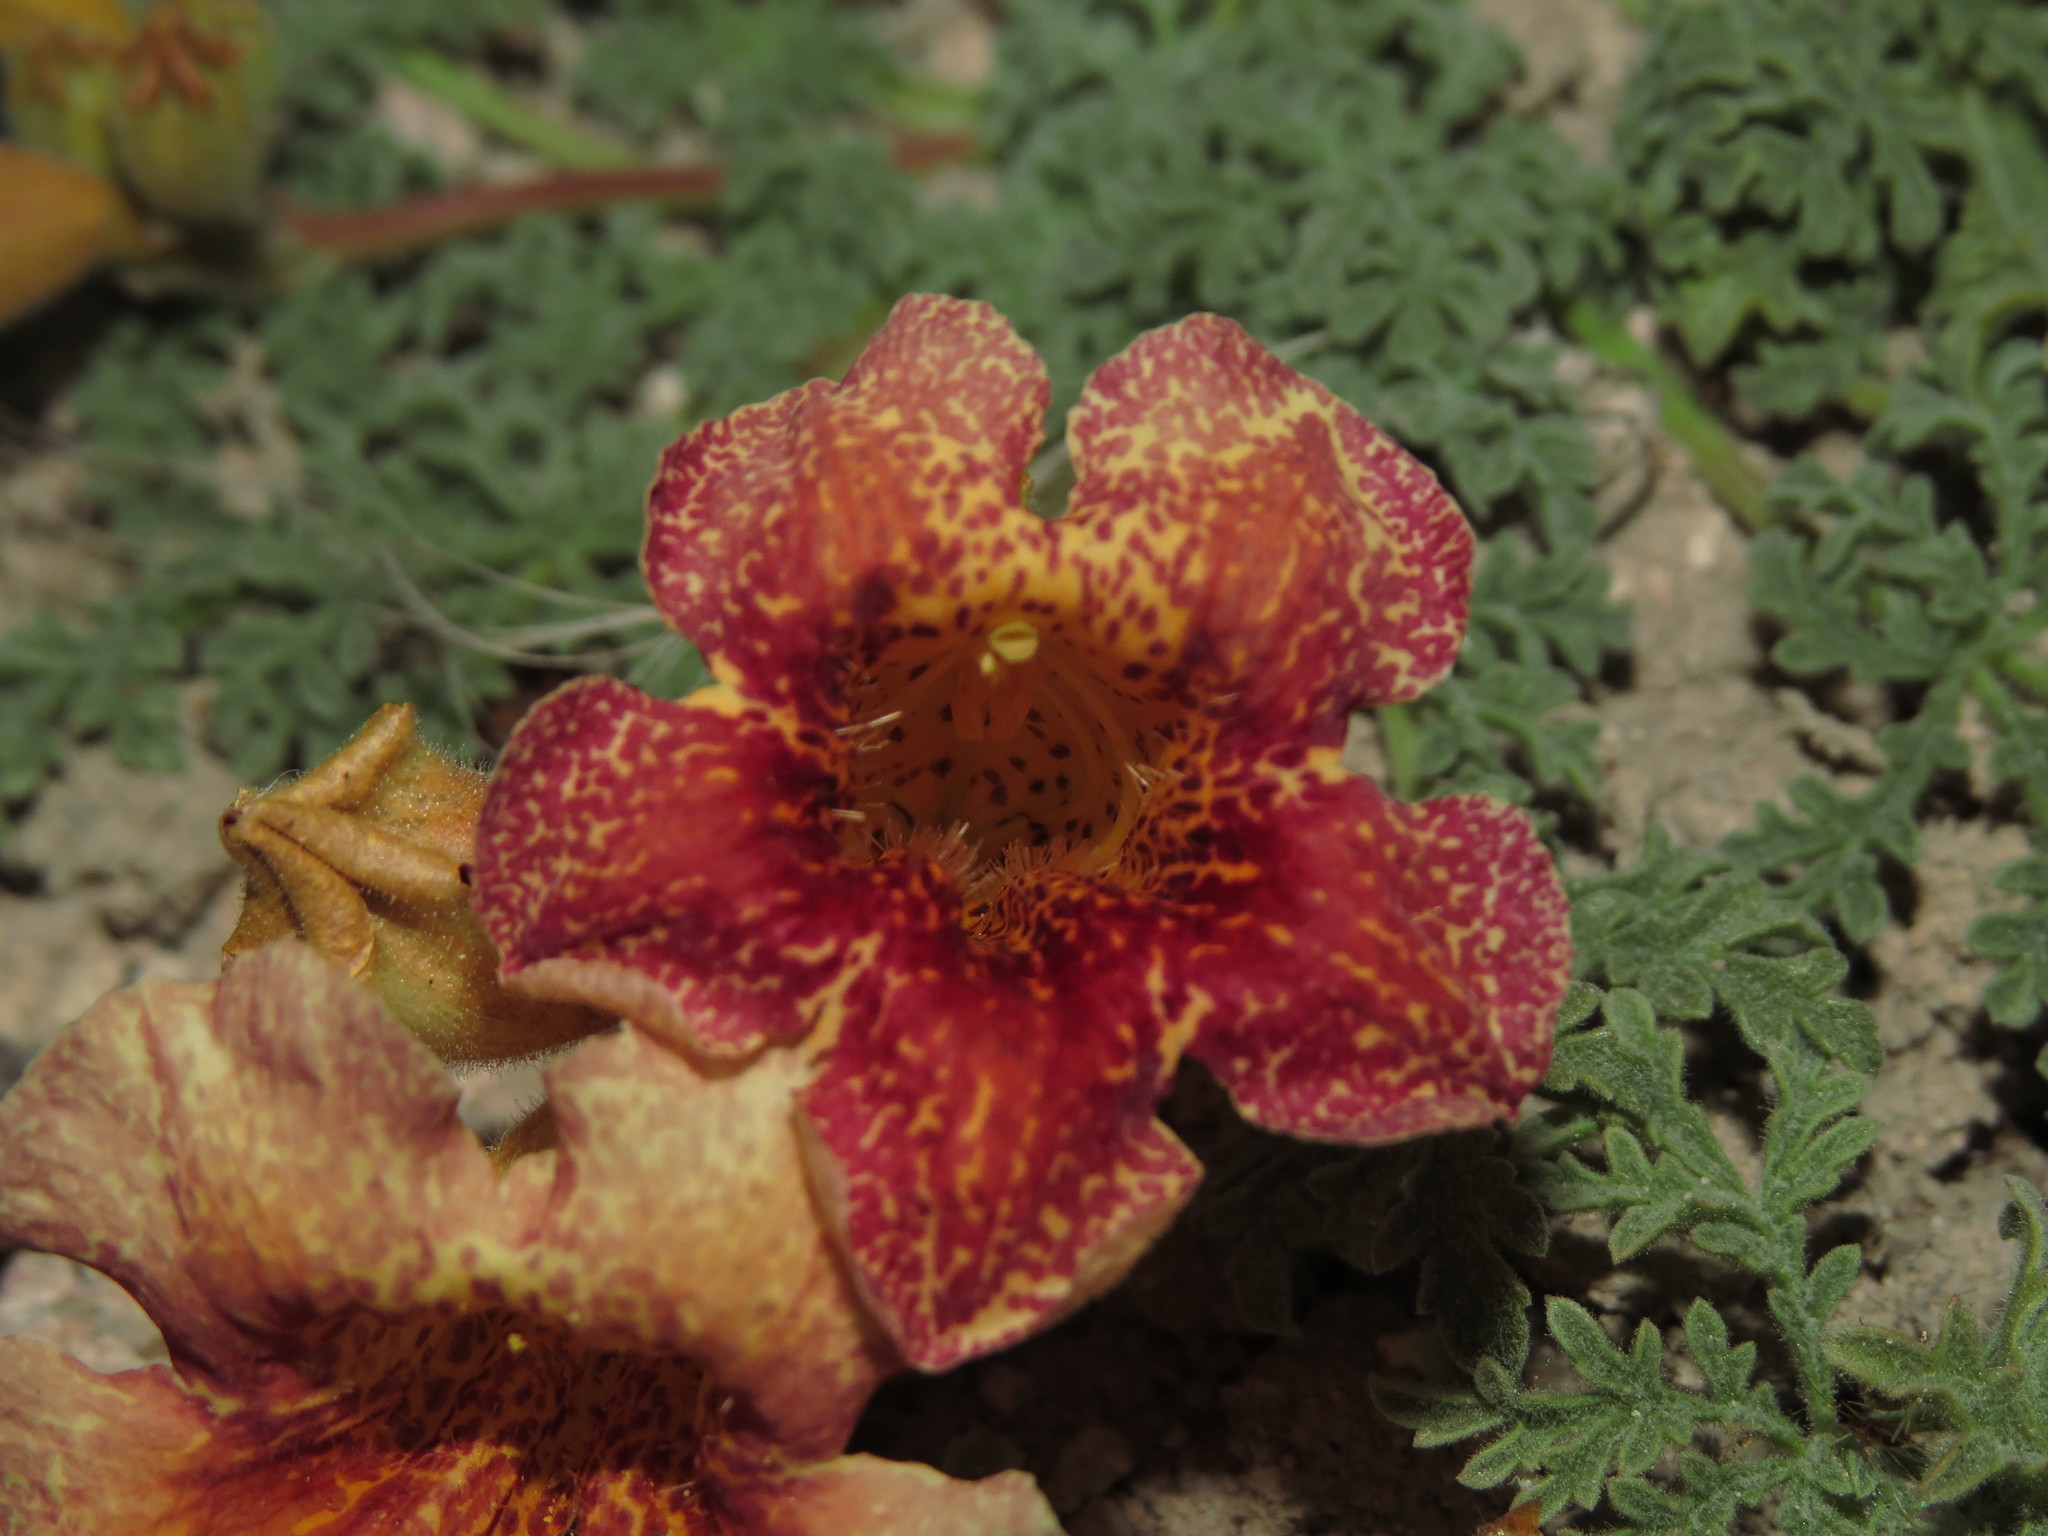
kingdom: Plantae
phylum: Tracheophyta
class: Magnoliopsida
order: Lamiales
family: Bignoniaceae
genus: Argylia
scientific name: Argylia adscendens
